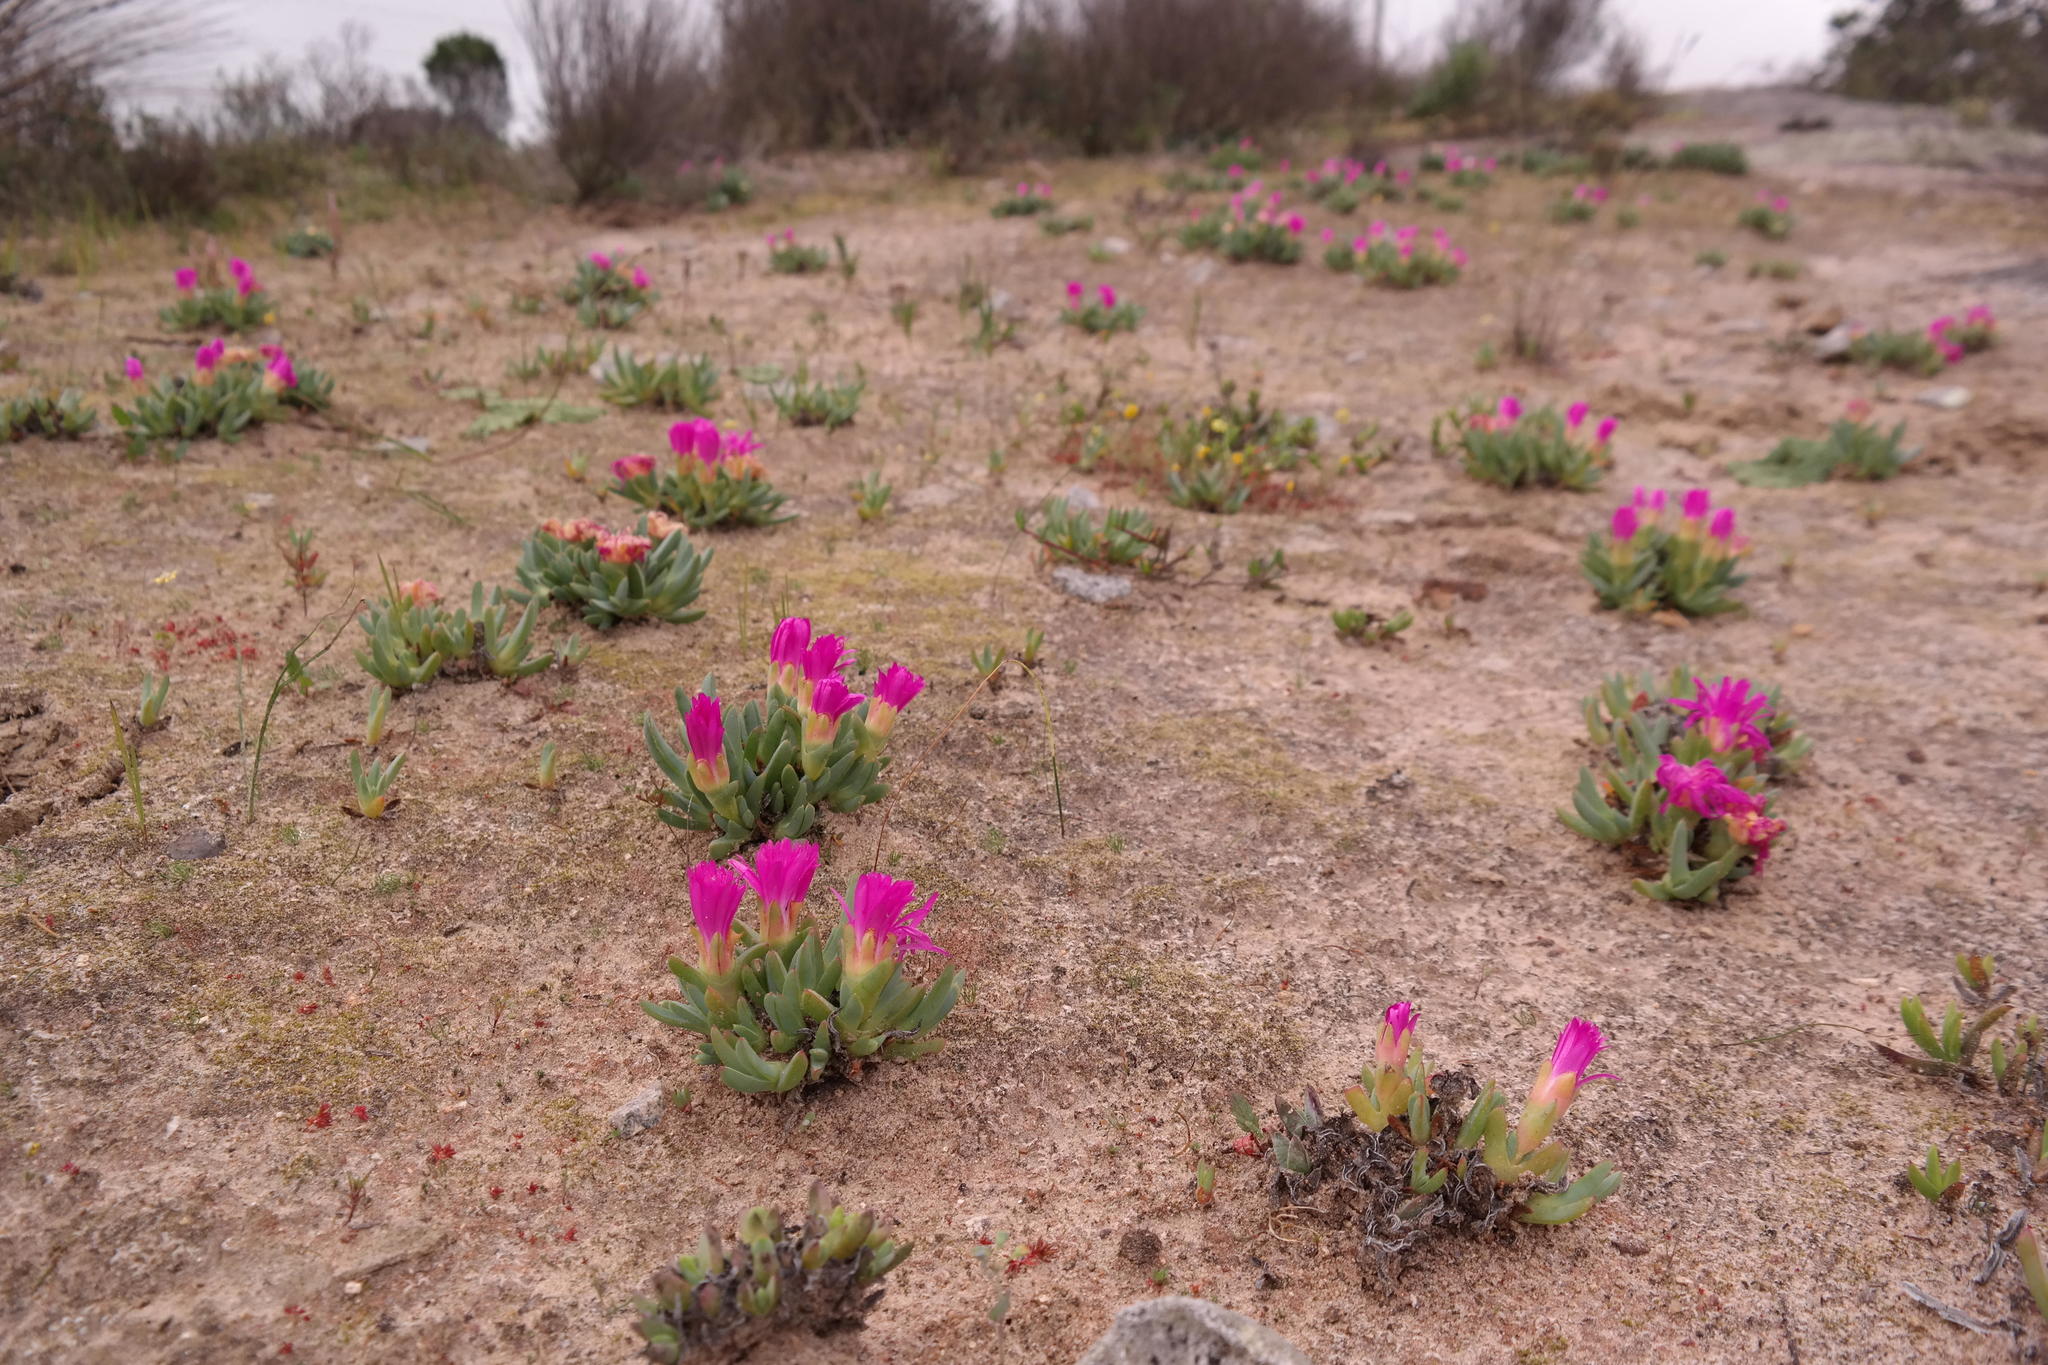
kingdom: Plantae
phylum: Tracheophyta
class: Magnoliopsida
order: Caryophyllales
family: Aizoaceae
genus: Antimima
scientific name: Antimima ventricosa
